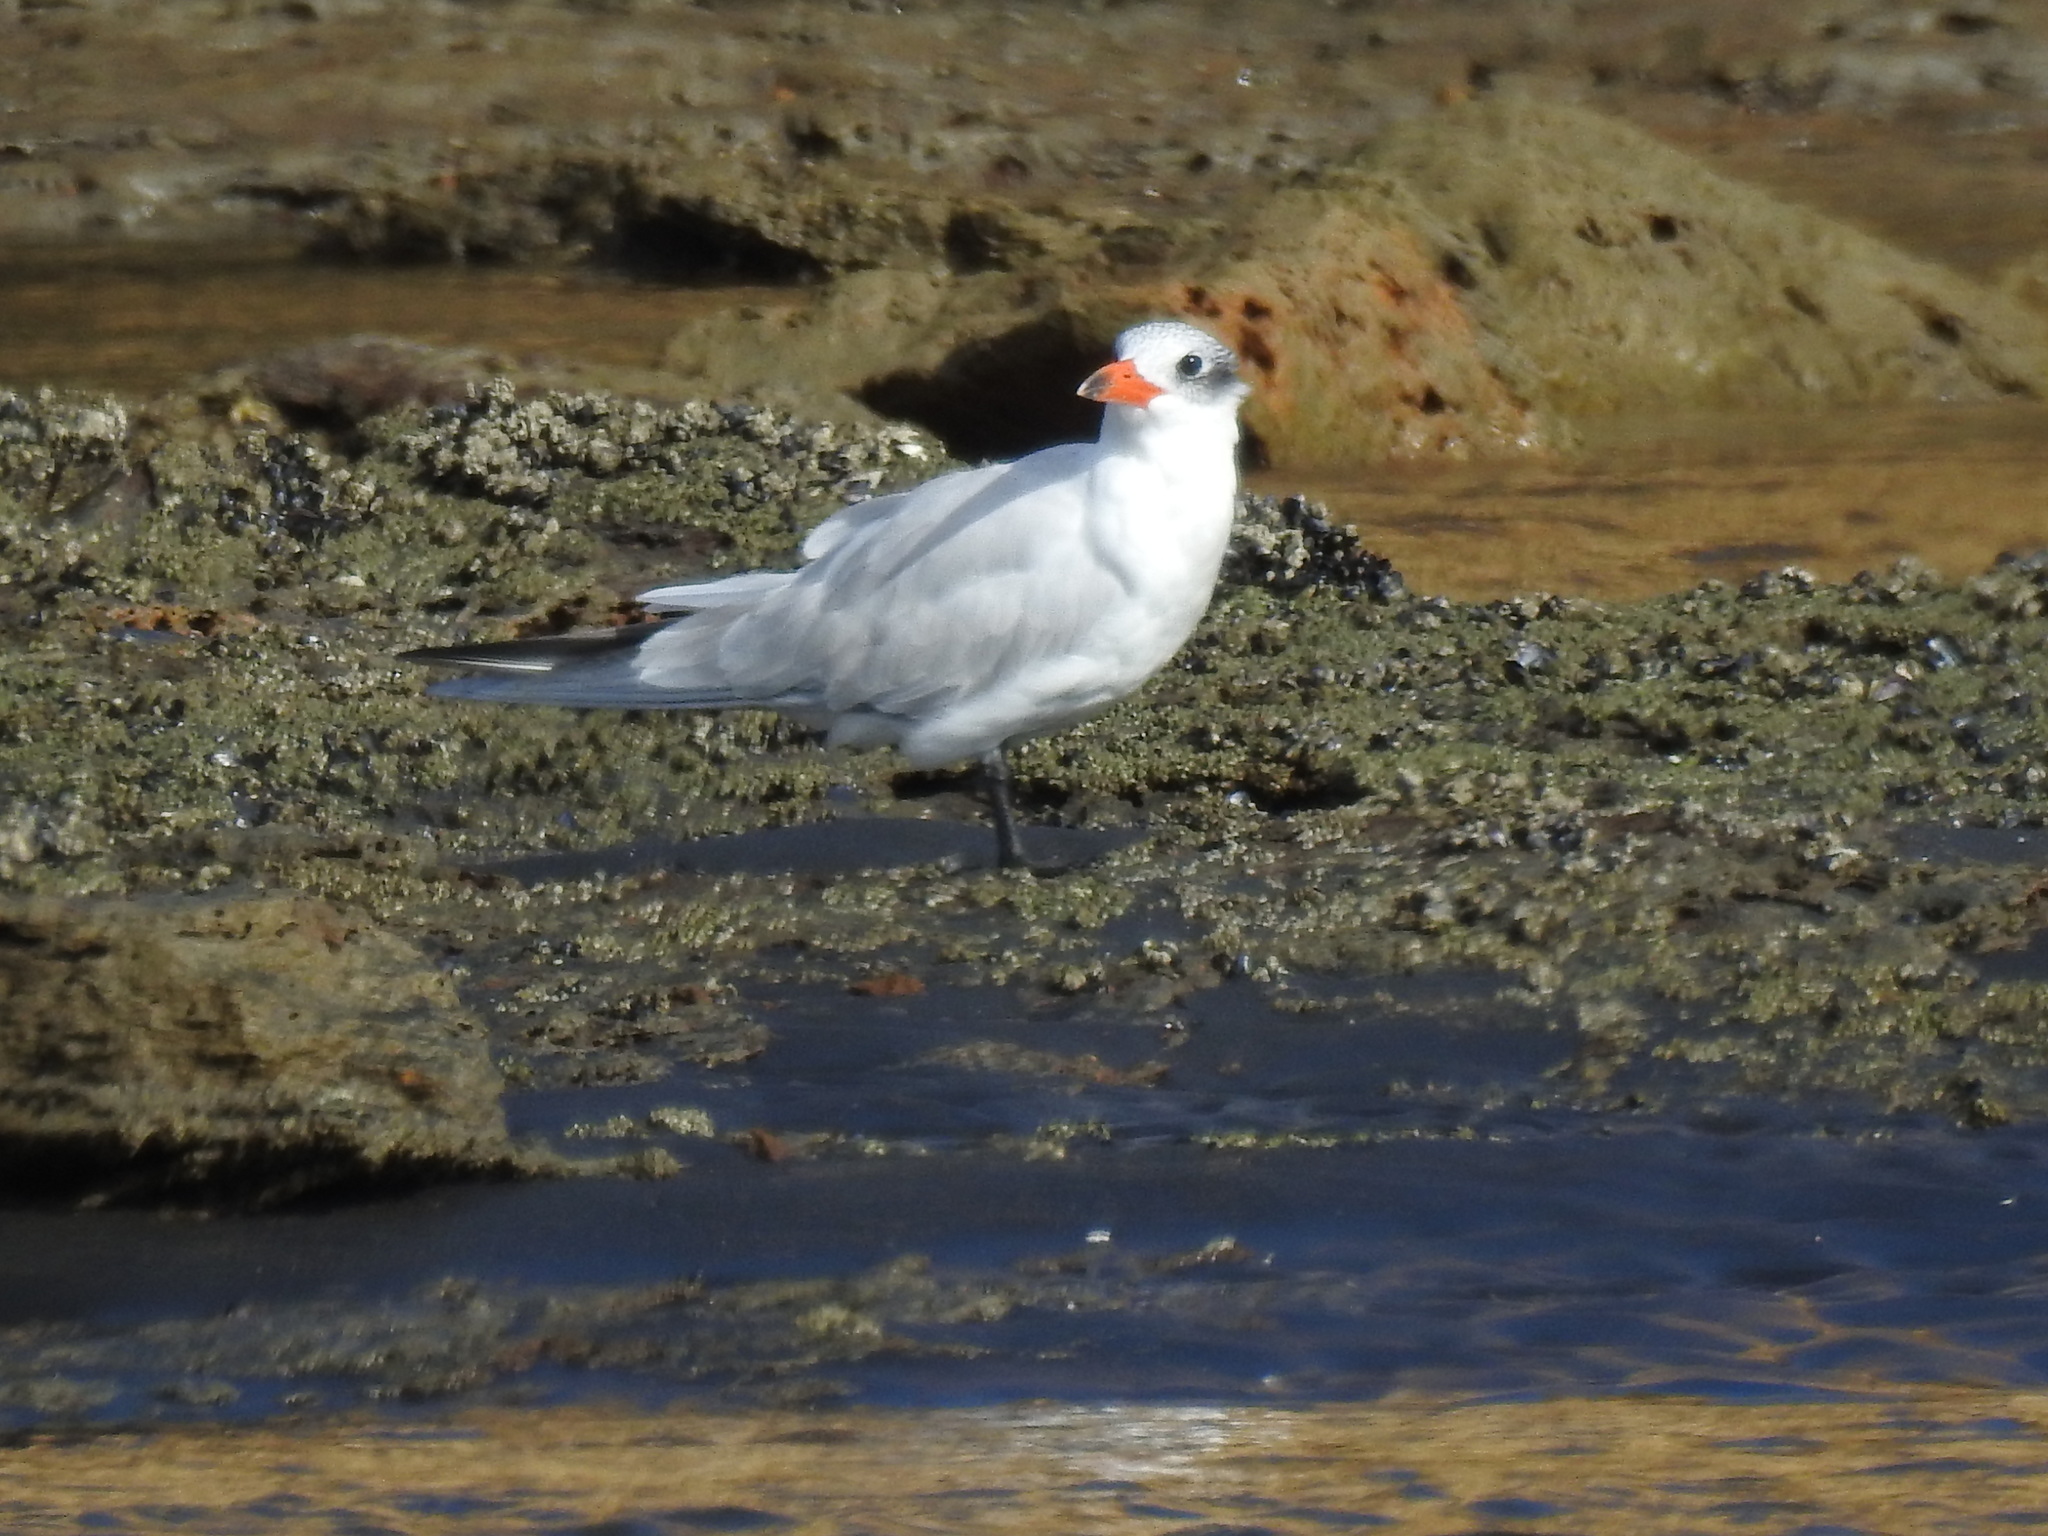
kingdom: Animalia
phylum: Chordata
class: Aves
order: Charadriiformes
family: Laridae
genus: Hydroprogne
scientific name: Hydroprogne caspia
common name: Caspian tern
